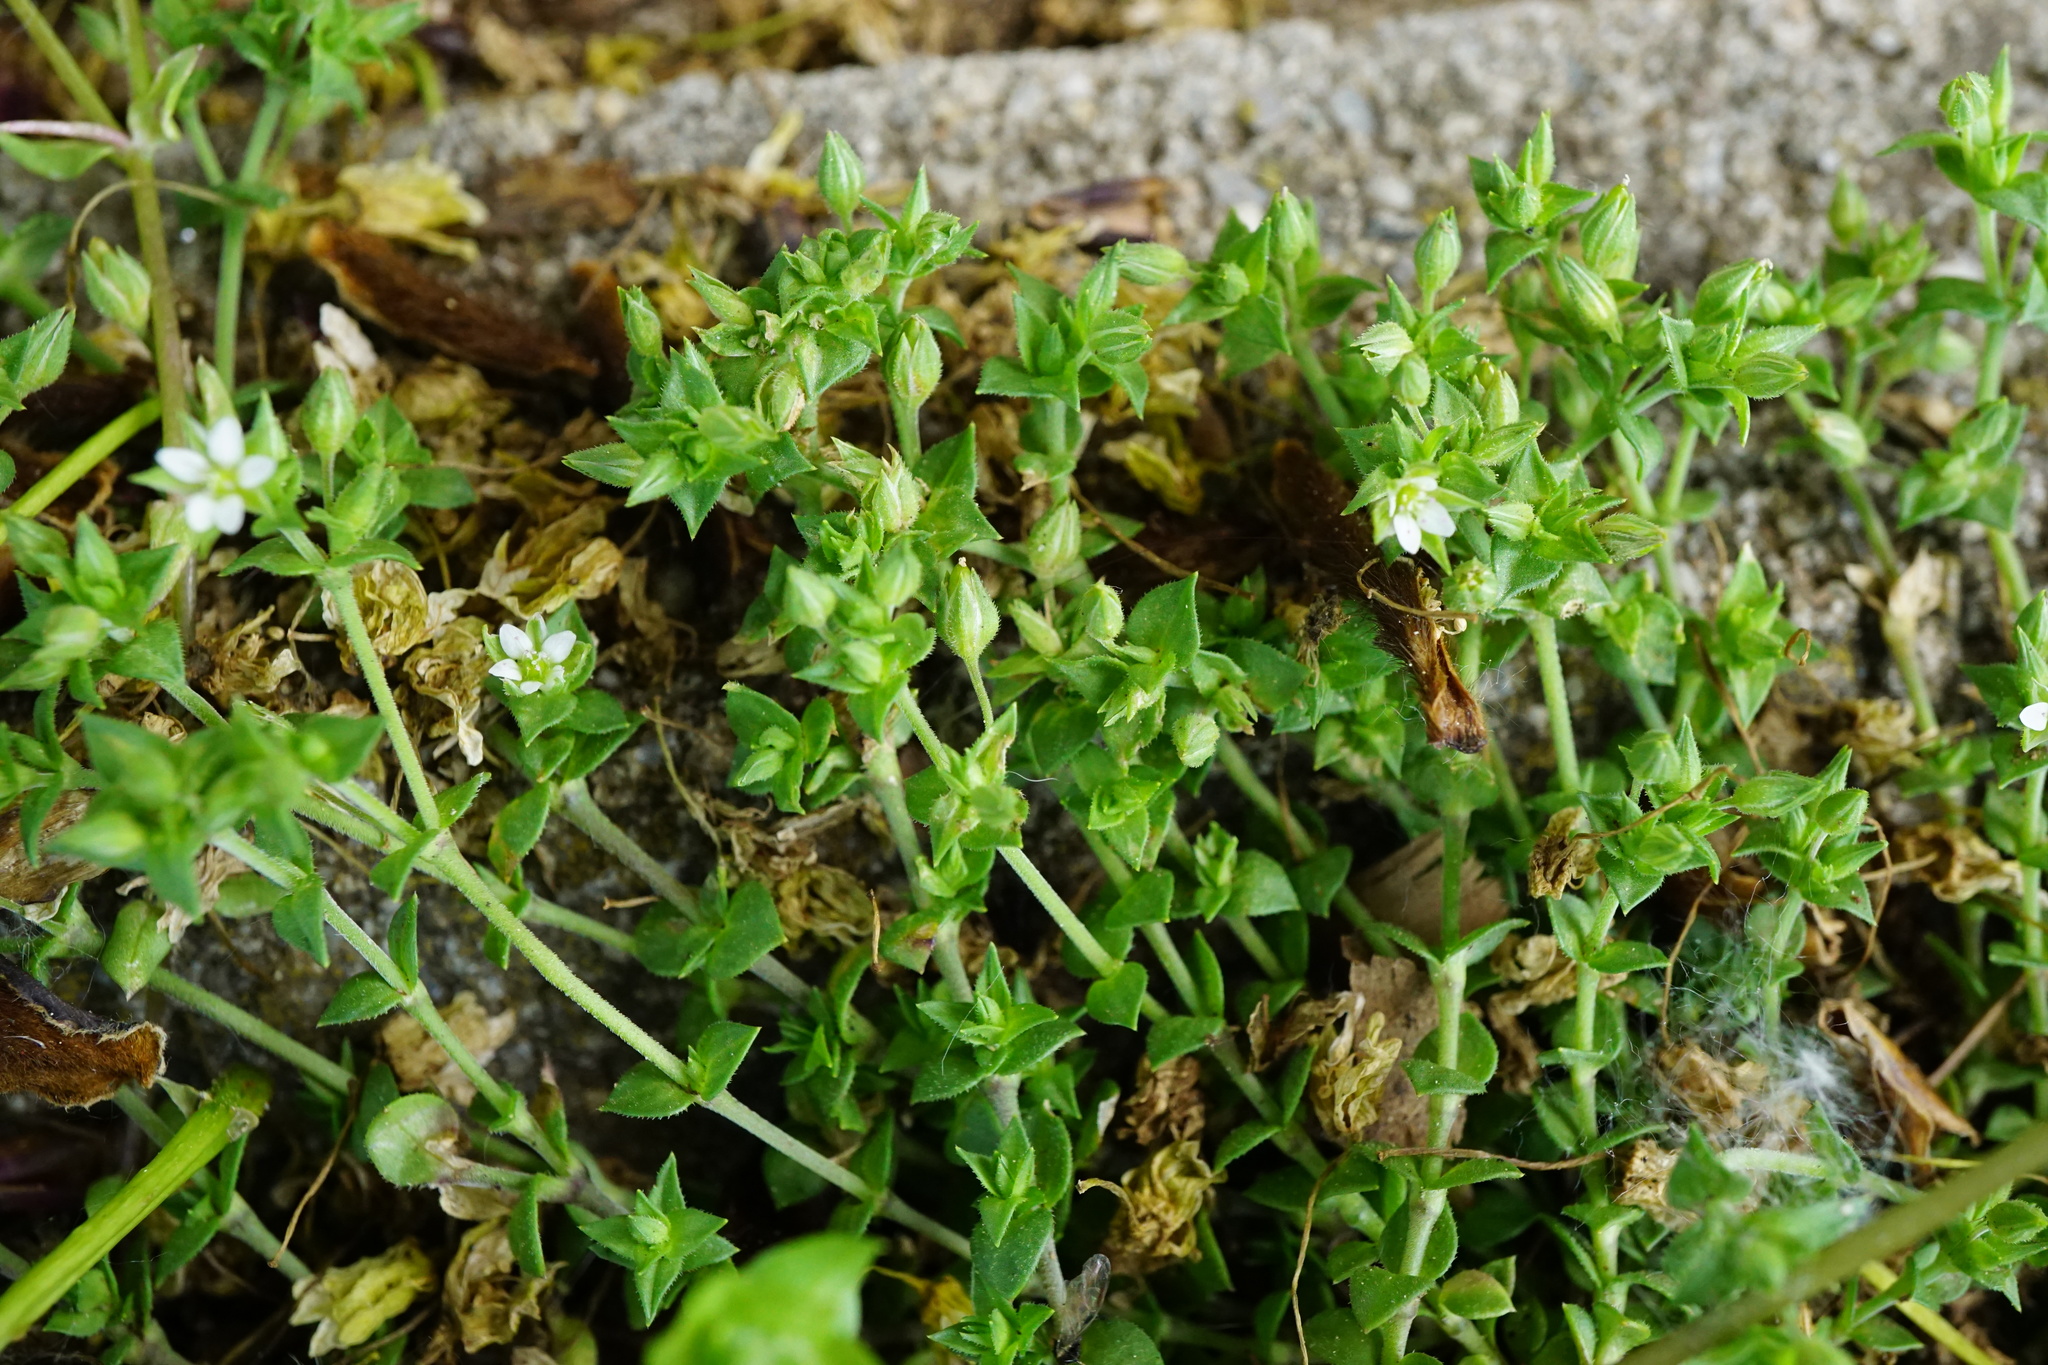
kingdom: Plantae
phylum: Tracheophyta
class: Magnoliopsida
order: Caryophyllales
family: Caryophyllaceae
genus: Arenaria
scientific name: Arenaria serpyllifolia
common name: Thyme-leaved sandwort
